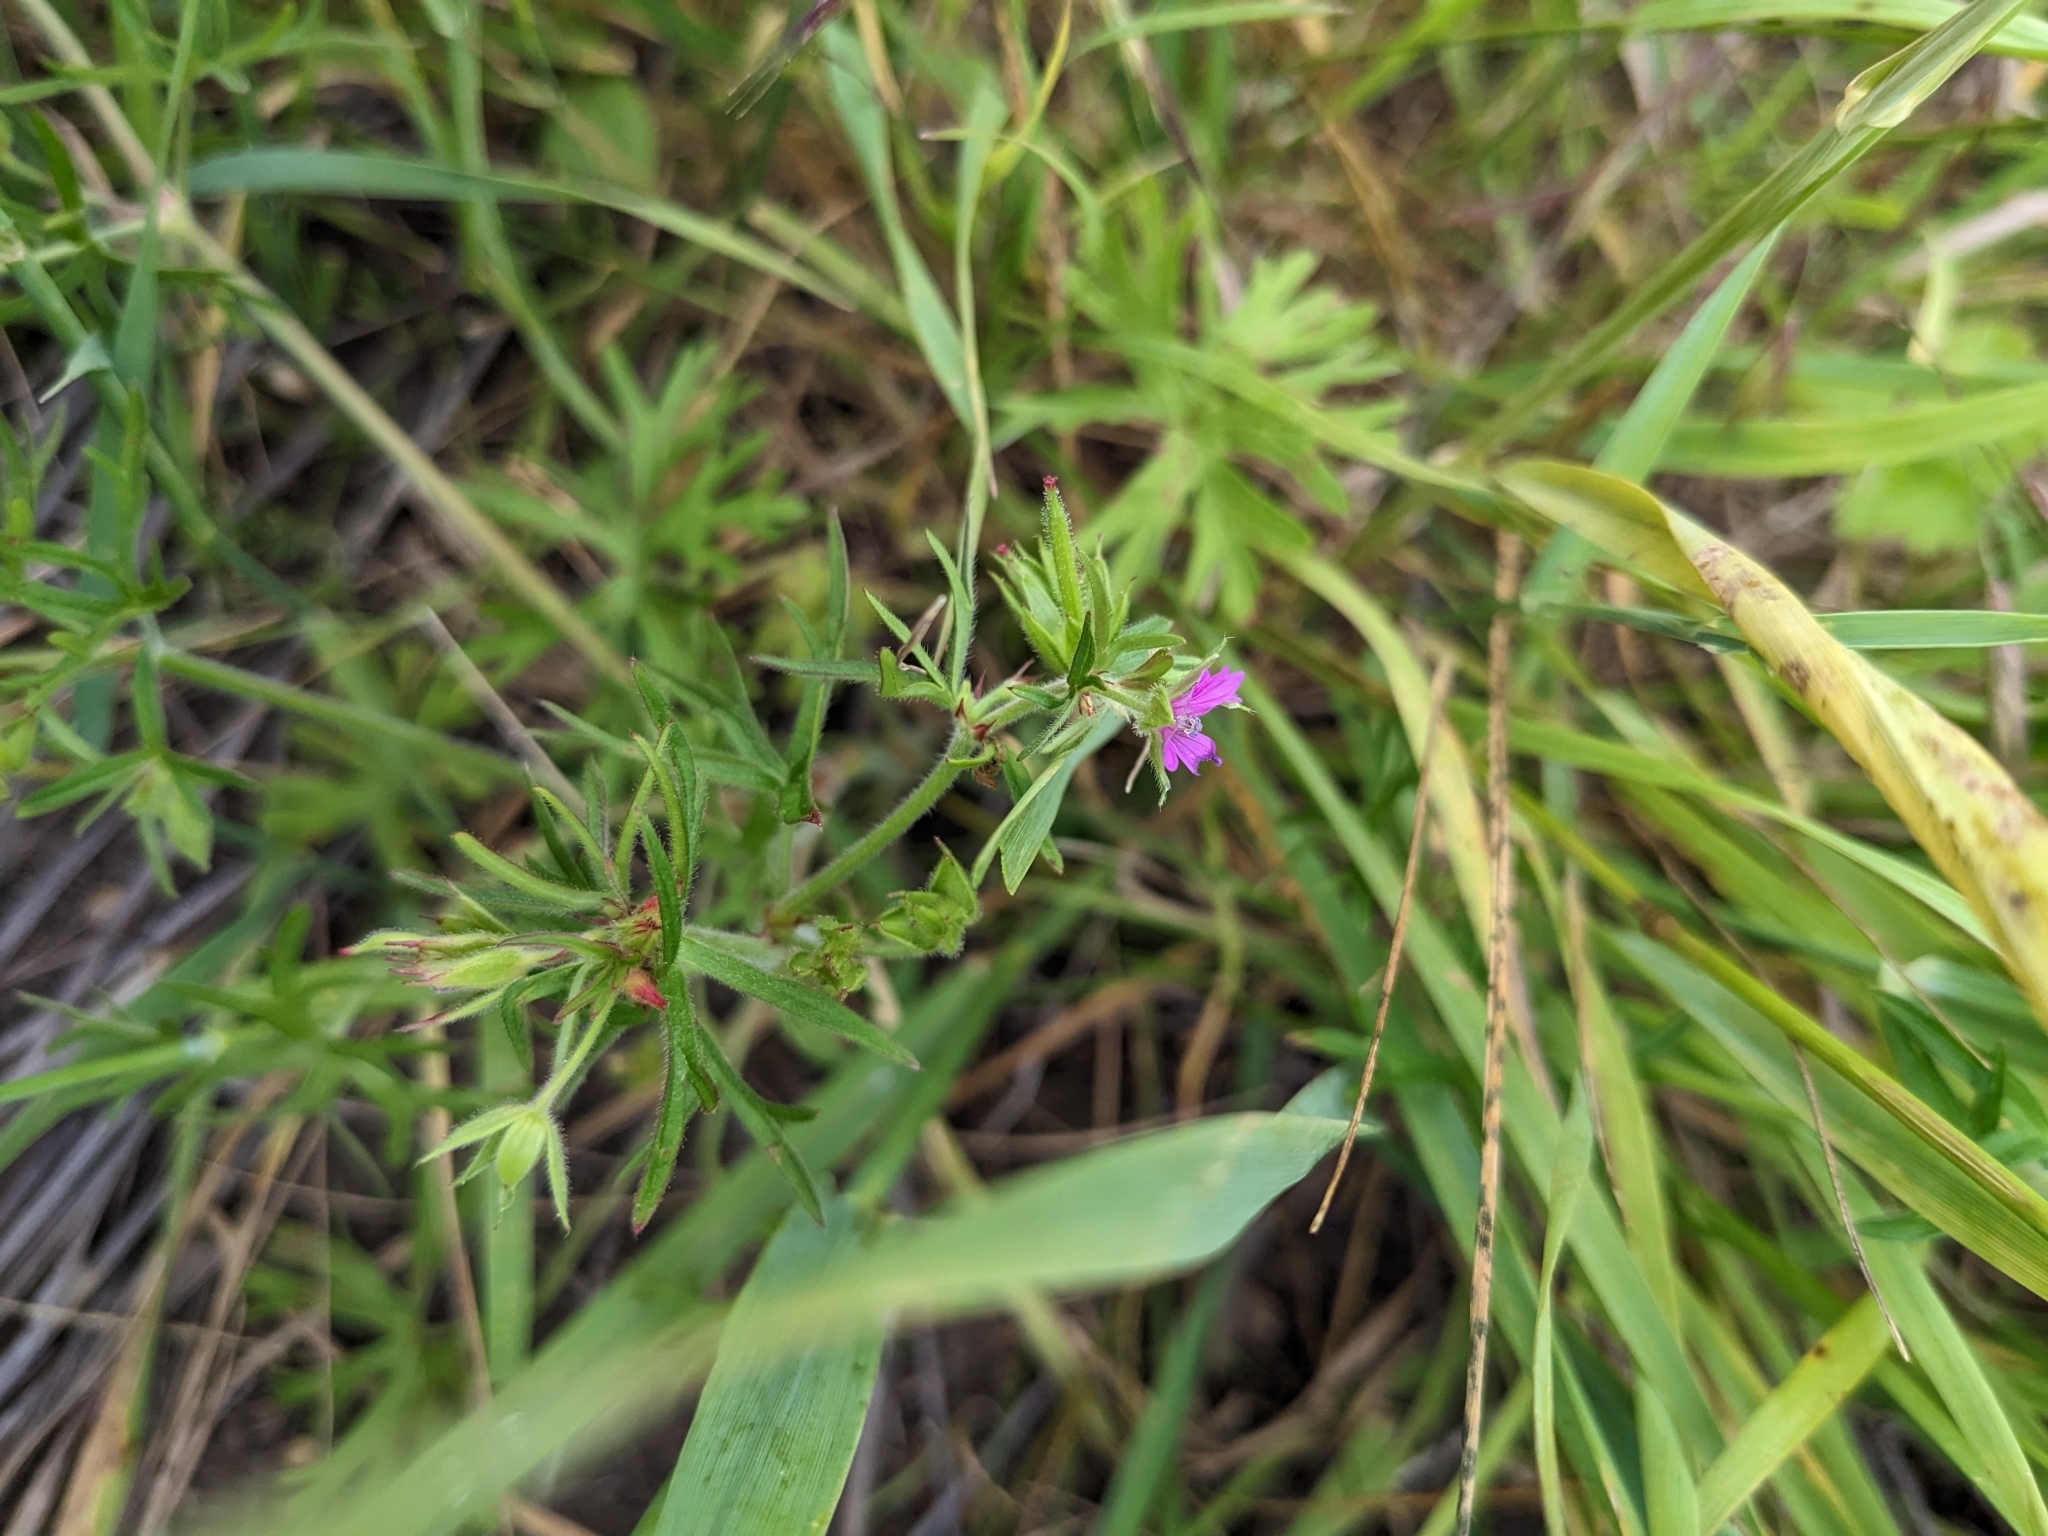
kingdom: Plantae
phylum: Tracheophyta
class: Magnoliopsida
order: Geraniales
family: Geraniaceae
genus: Geranium
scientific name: Geranium dissectum
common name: Cut-leaved crane's-bill
